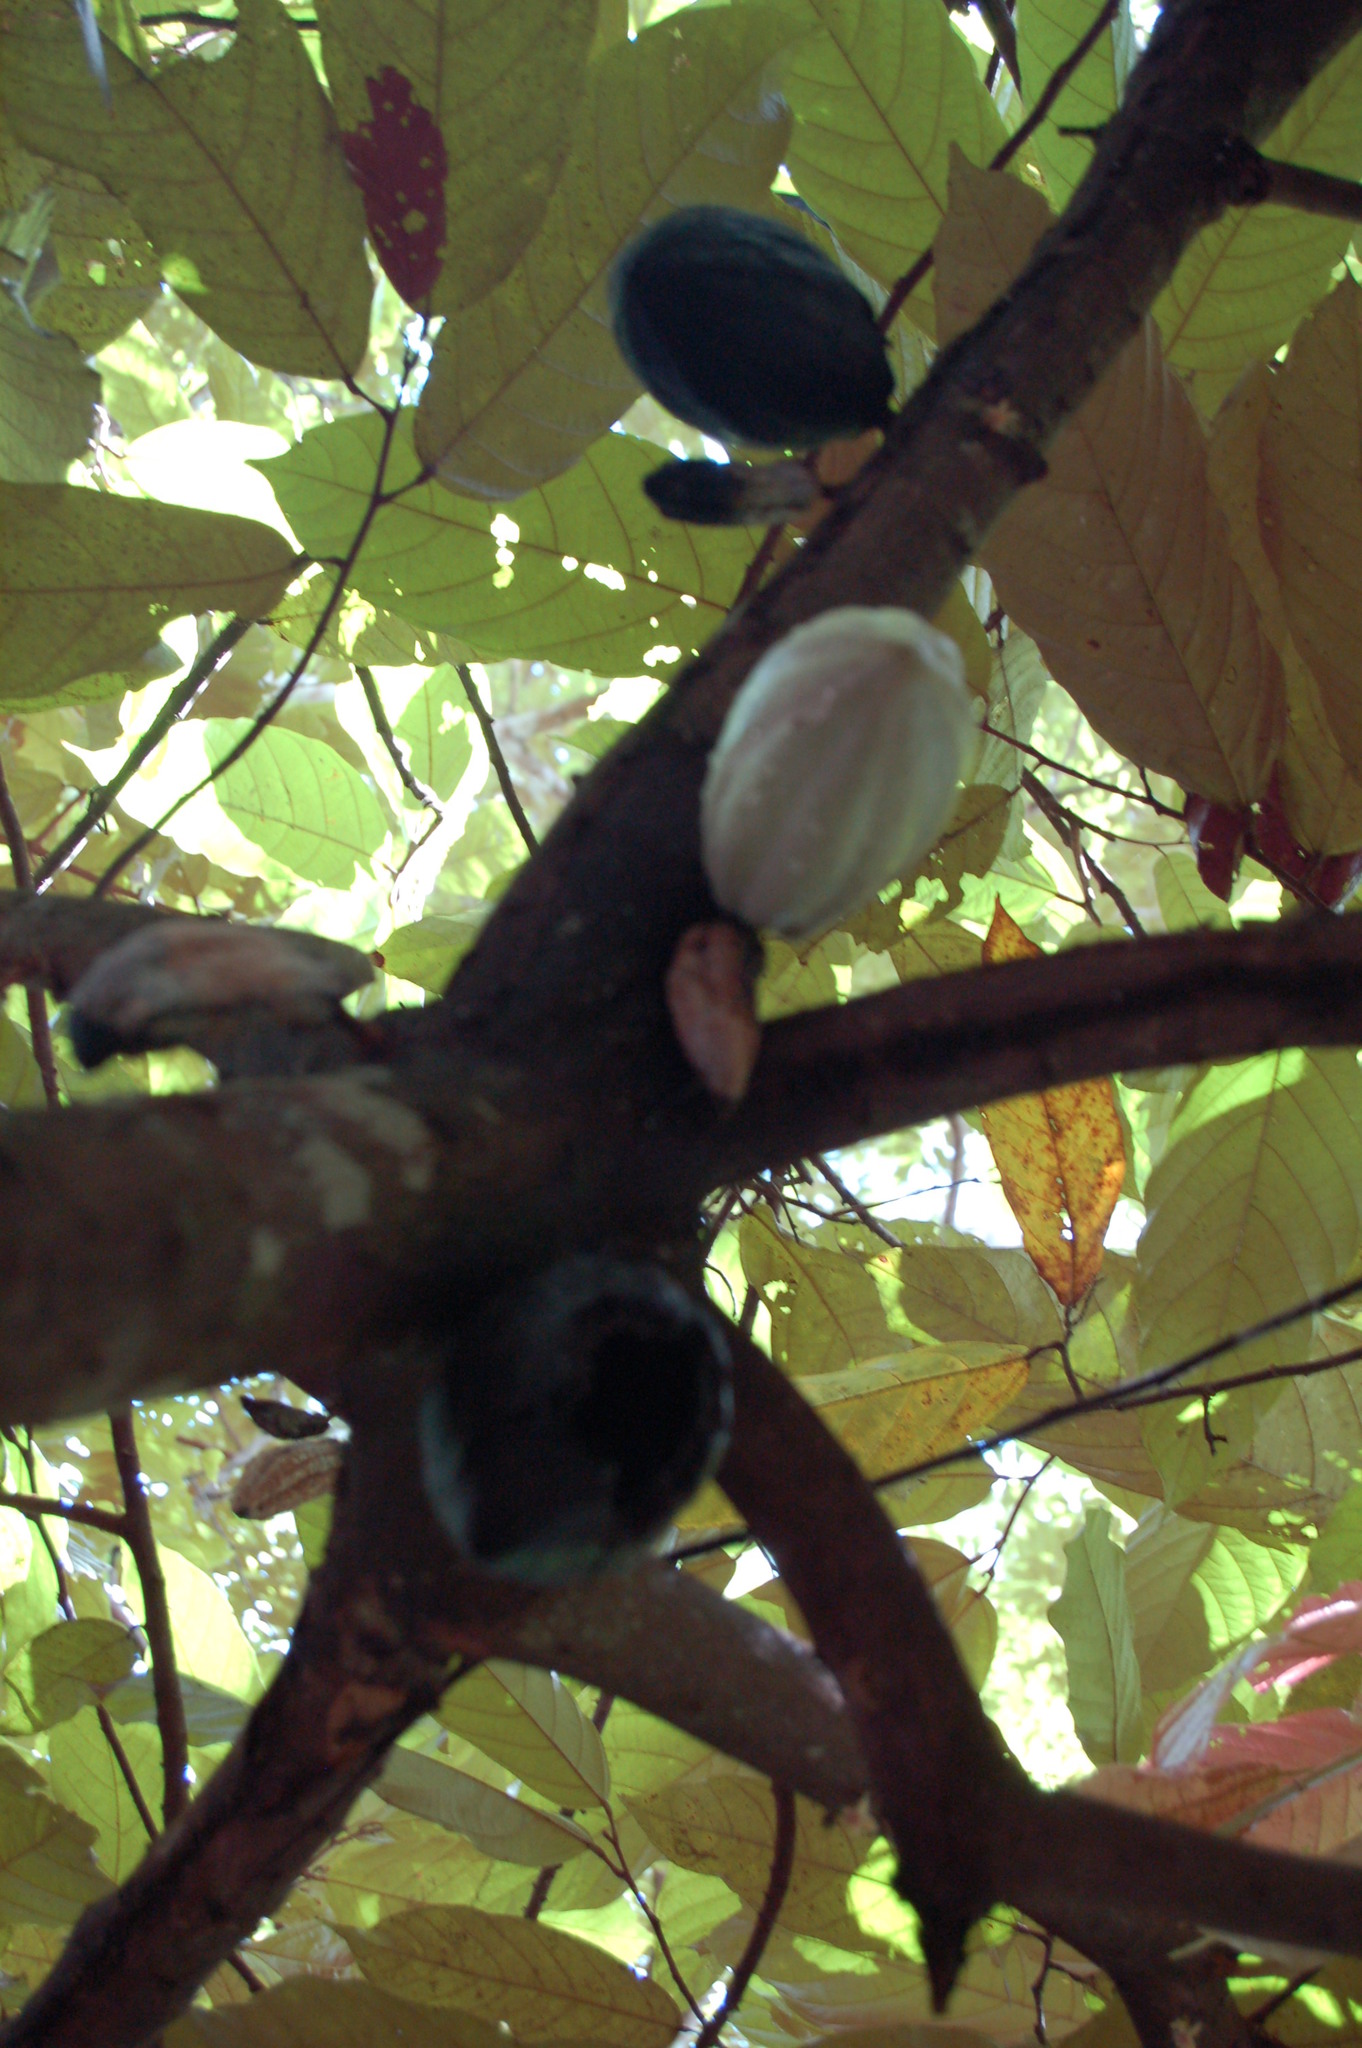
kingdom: Plantae
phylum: Tracheophyta
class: Magnoliopsida
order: Malvales
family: Malvaceae
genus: Theobroma
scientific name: Theobroma cacao
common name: Cocoa
